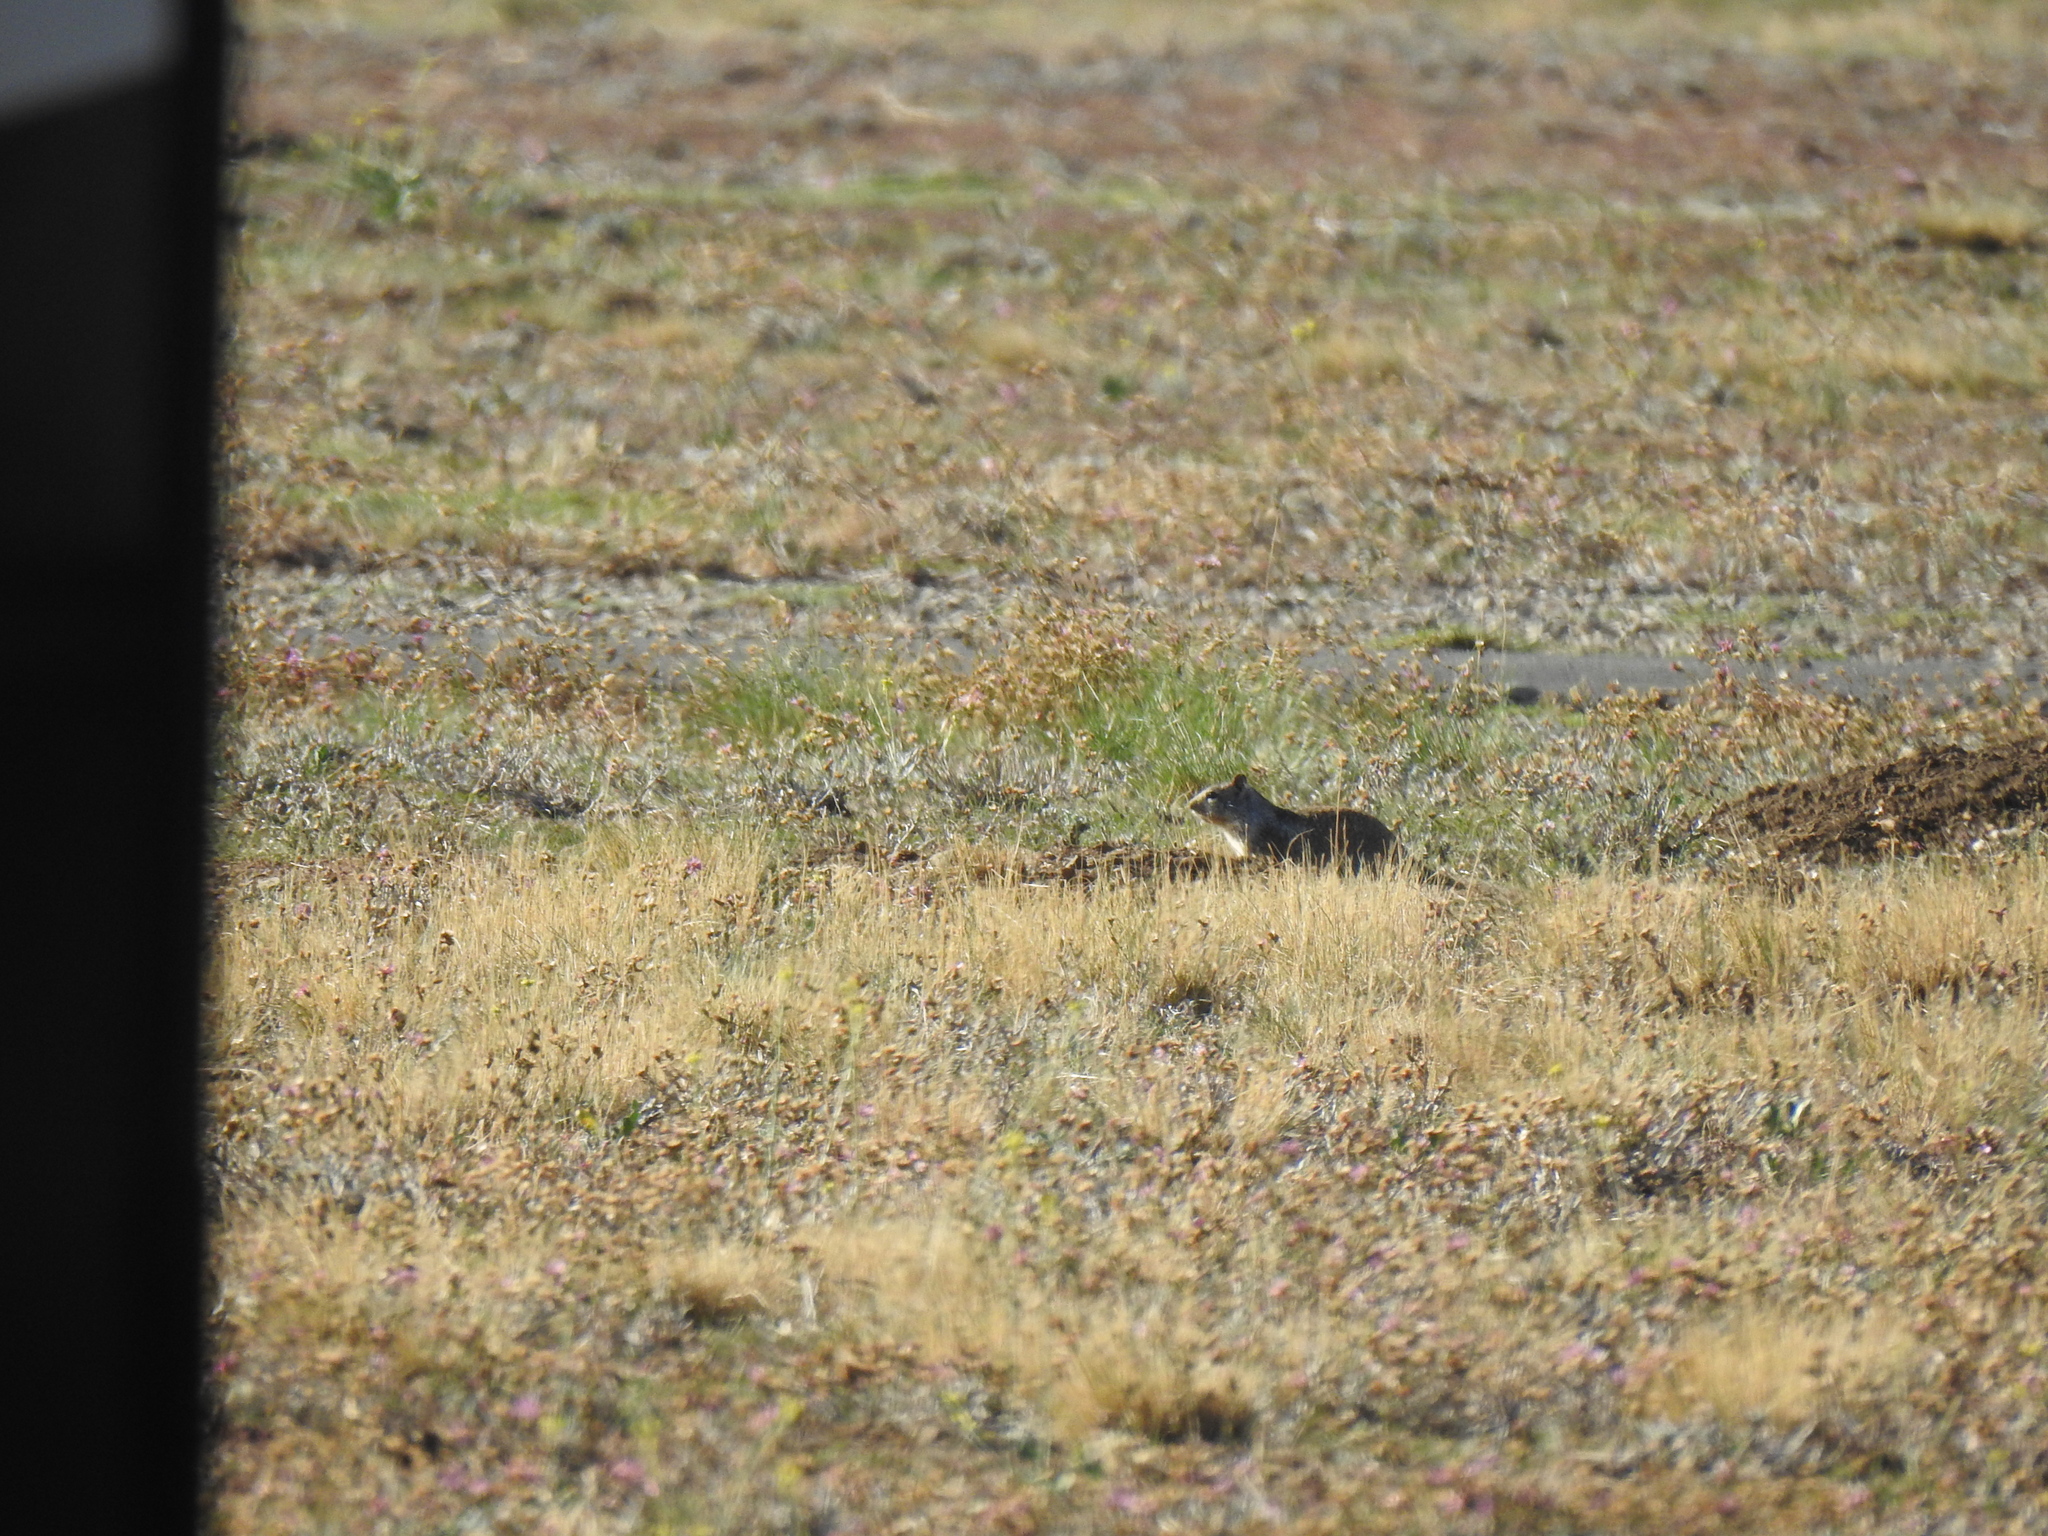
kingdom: Animalia
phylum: Chordata
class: Mammalia
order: Rodentia
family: Sciuridae
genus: Otospermophilus
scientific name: Otospermophilus beecheyi
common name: California ground squirrel
